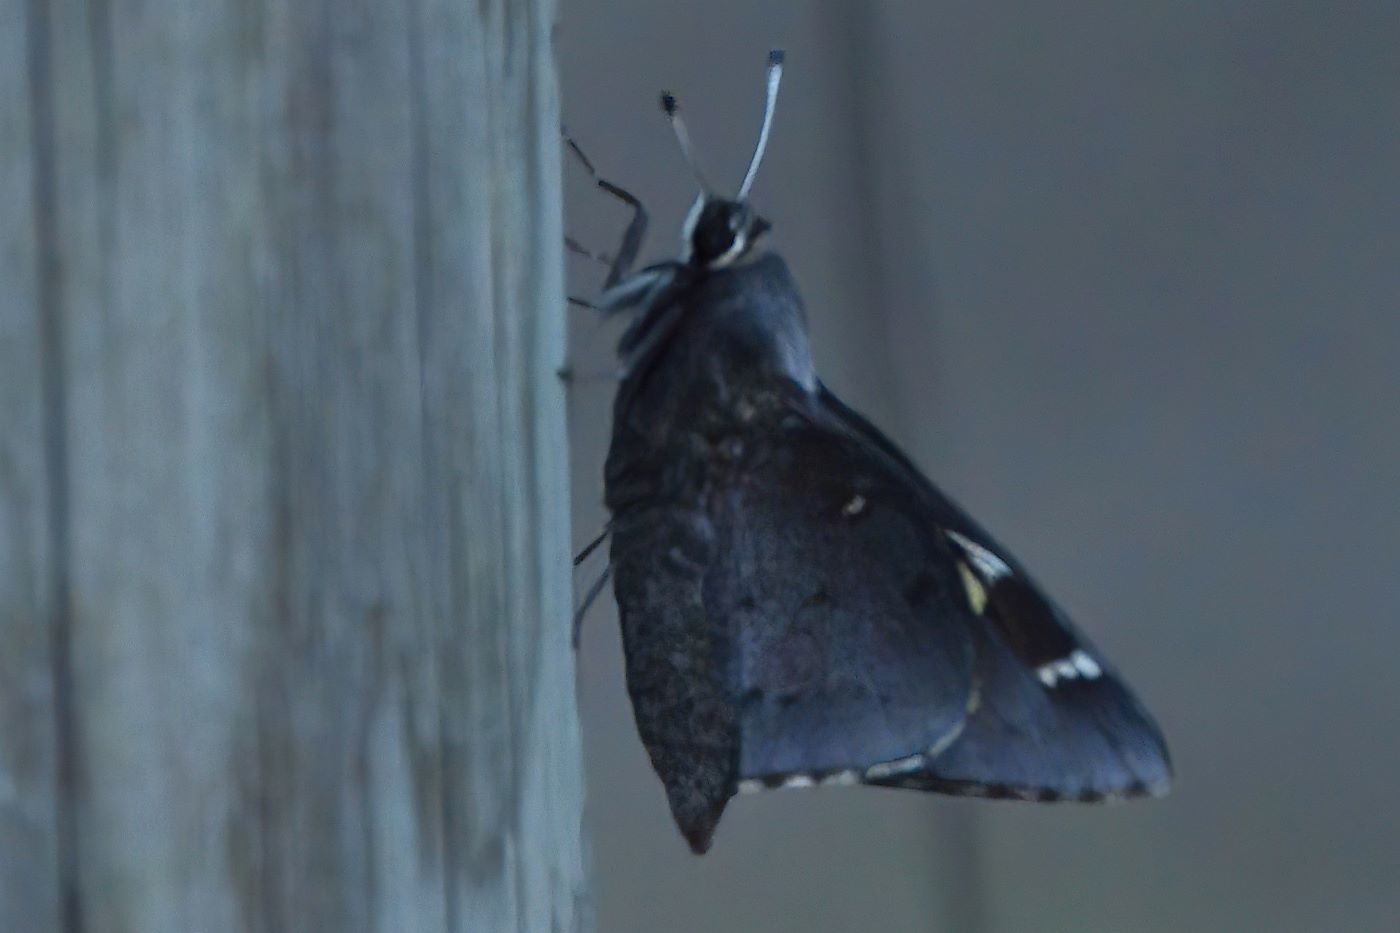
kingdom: Animalia
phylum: Arthropoda
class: Insecta
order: Lepidoptera
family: Hesperiidae
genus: Megathymus
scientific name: Megathymus cofaqui
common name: Cofaqui giant-skipper
